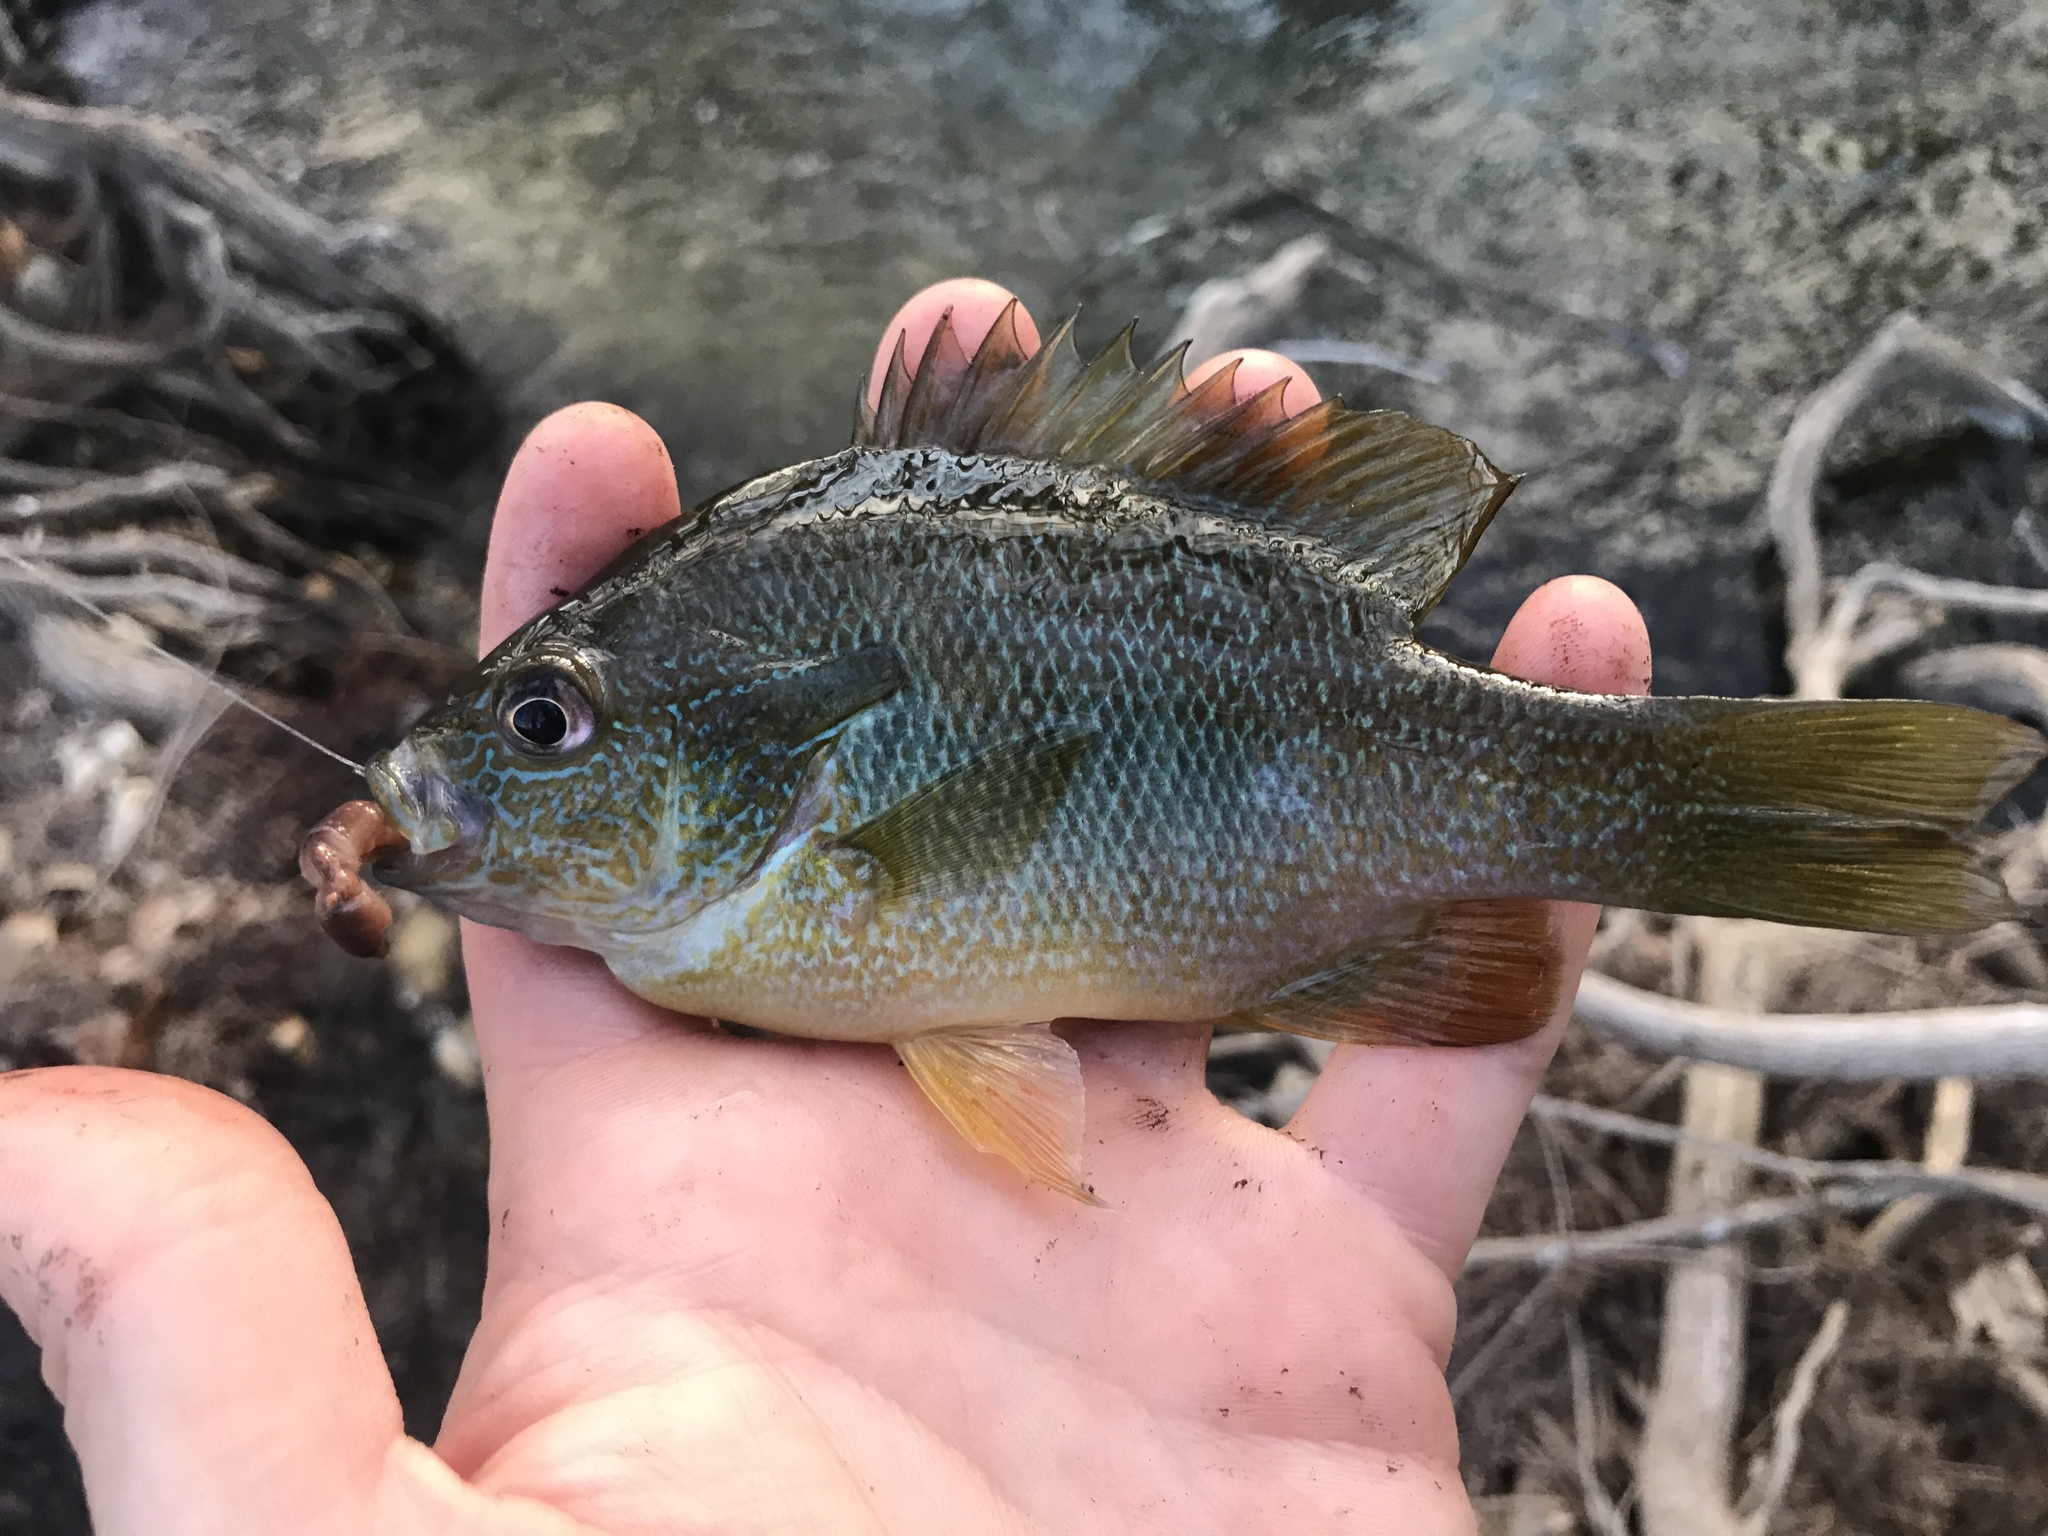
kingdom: Animalia
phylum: Chordata
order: Perciformes
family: Centrarchidae
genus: Lepomis
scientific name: Lepomis megalotis
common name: Longear sunfish
